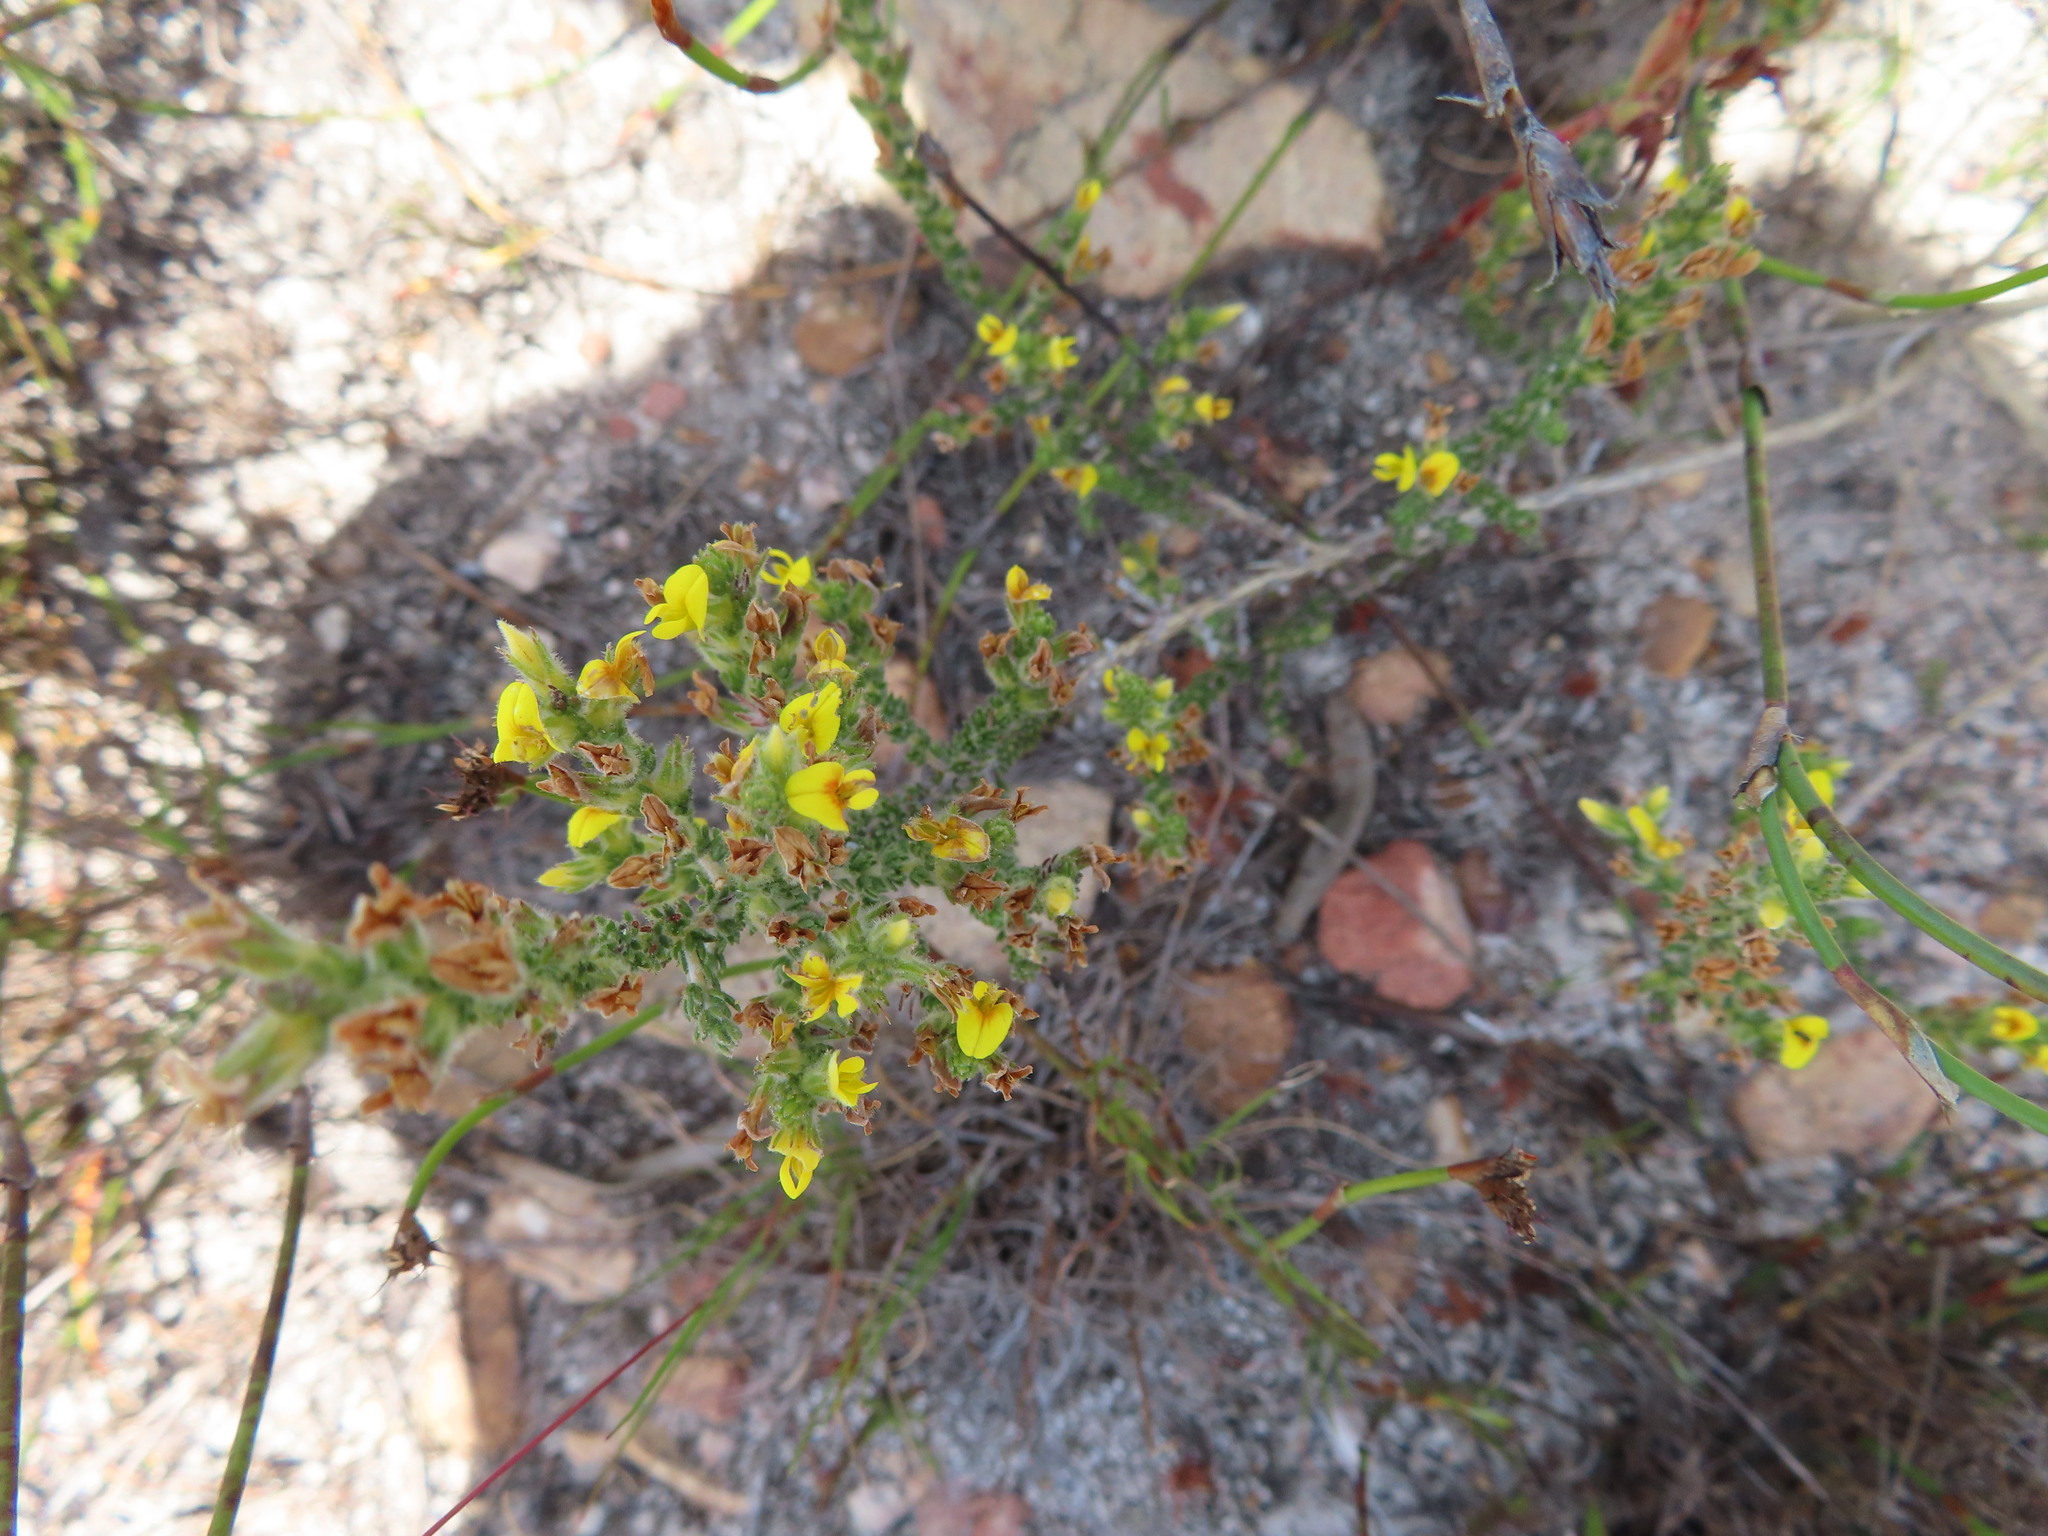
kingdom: Plantae
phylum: Tracheophyta
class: Magnoliopsida
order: Fabales
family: Fabaceae
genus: Aspalathus
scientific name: Aspalathus ericifolia
